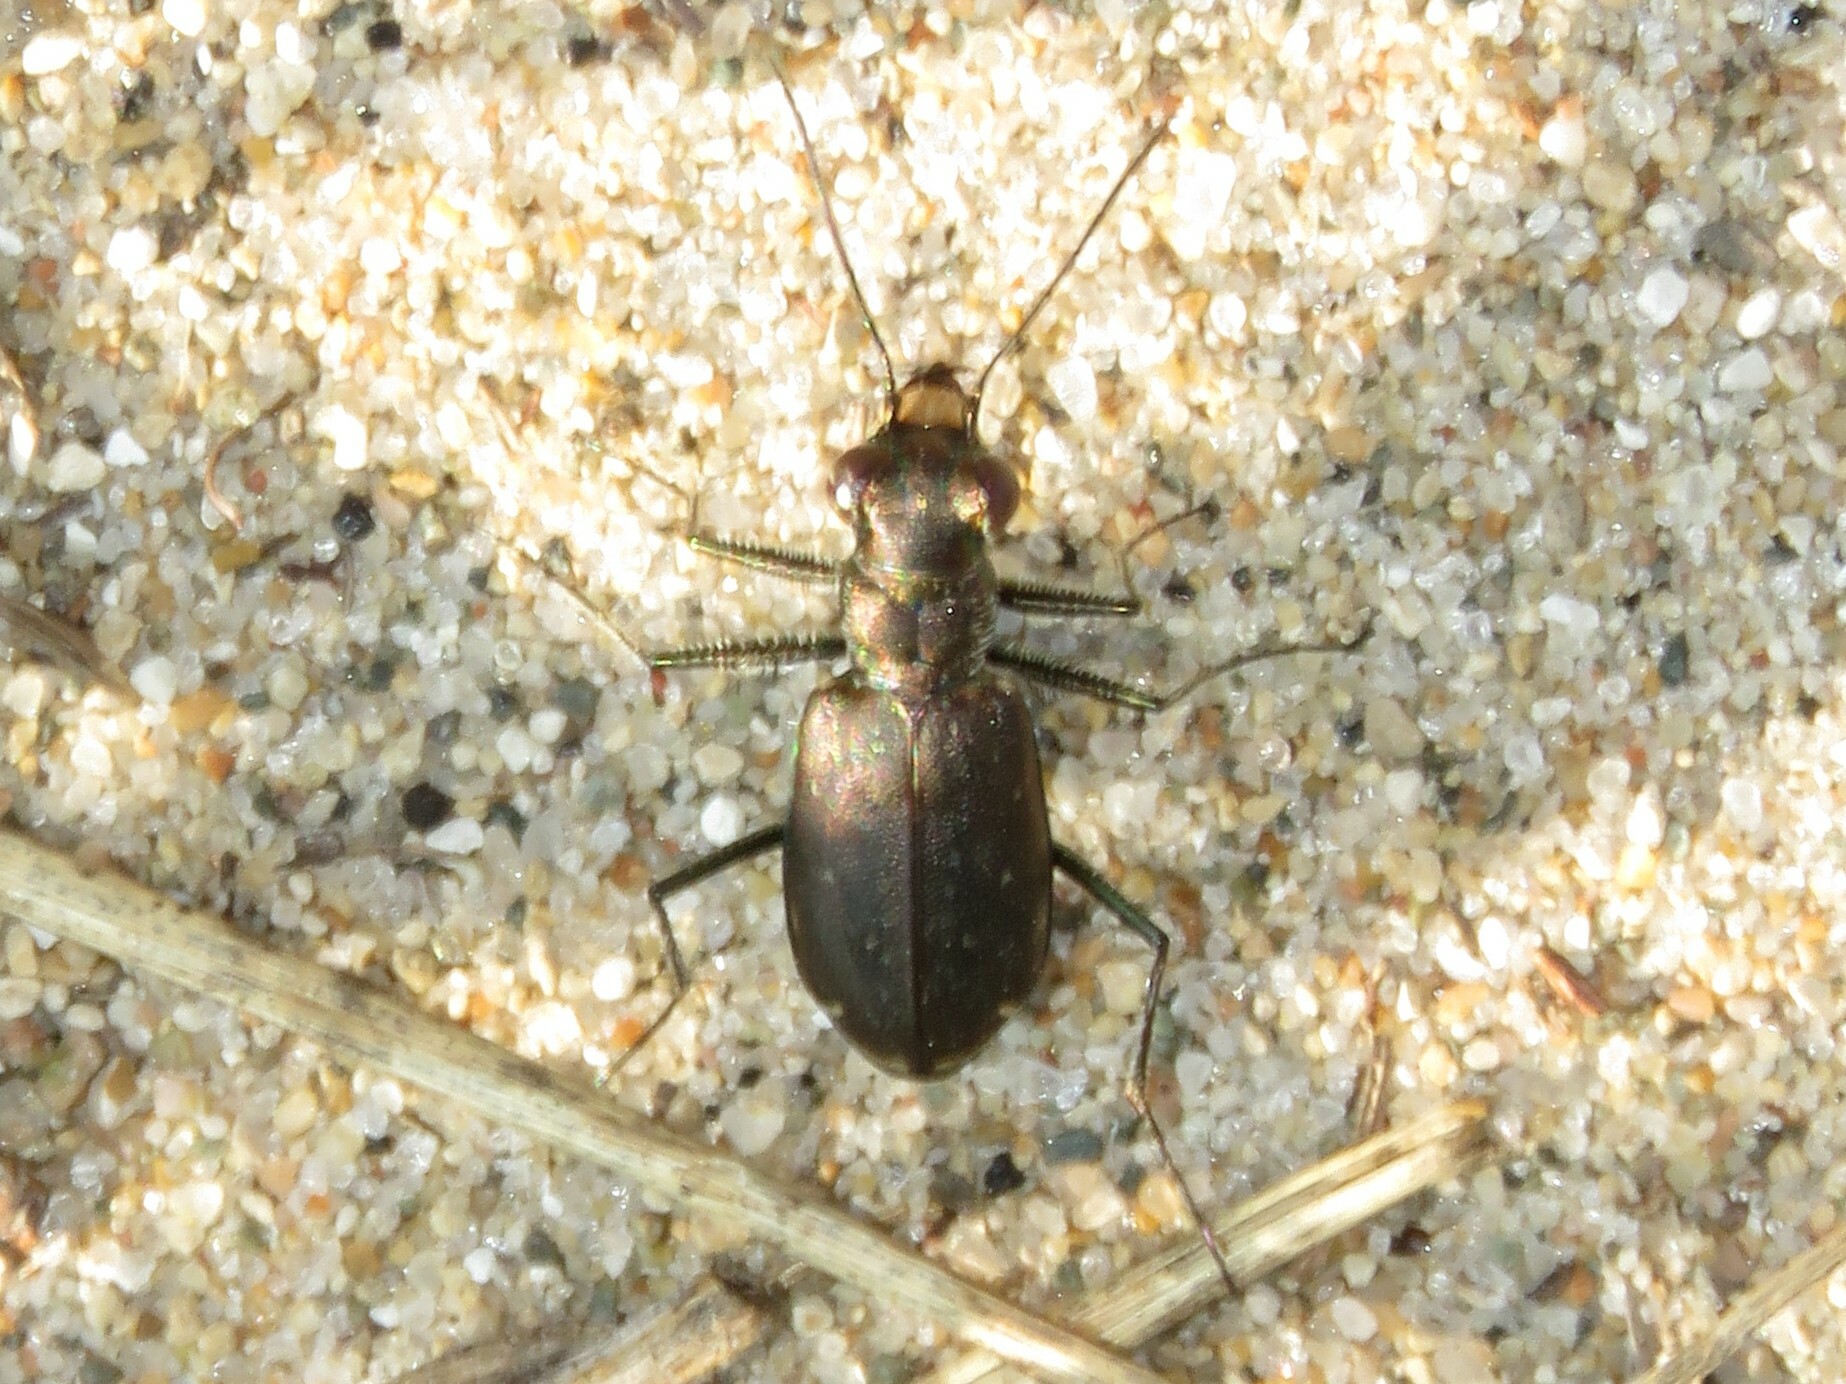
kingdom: Animalia
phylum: Arthropoda
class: Insecta
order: Coleoptera
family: Carabidae
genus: Cicindela
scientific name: Cicindela punctulata
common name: Punctured tiger beetle
